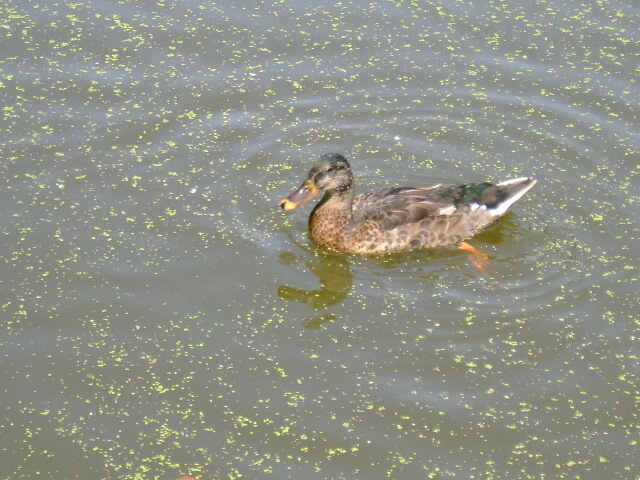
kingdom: Animalia
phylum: Chordata
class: Aves
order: Anseriformes
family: Anatidae
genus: Anas
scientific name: Anas platyrhynchos
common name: Mallard
